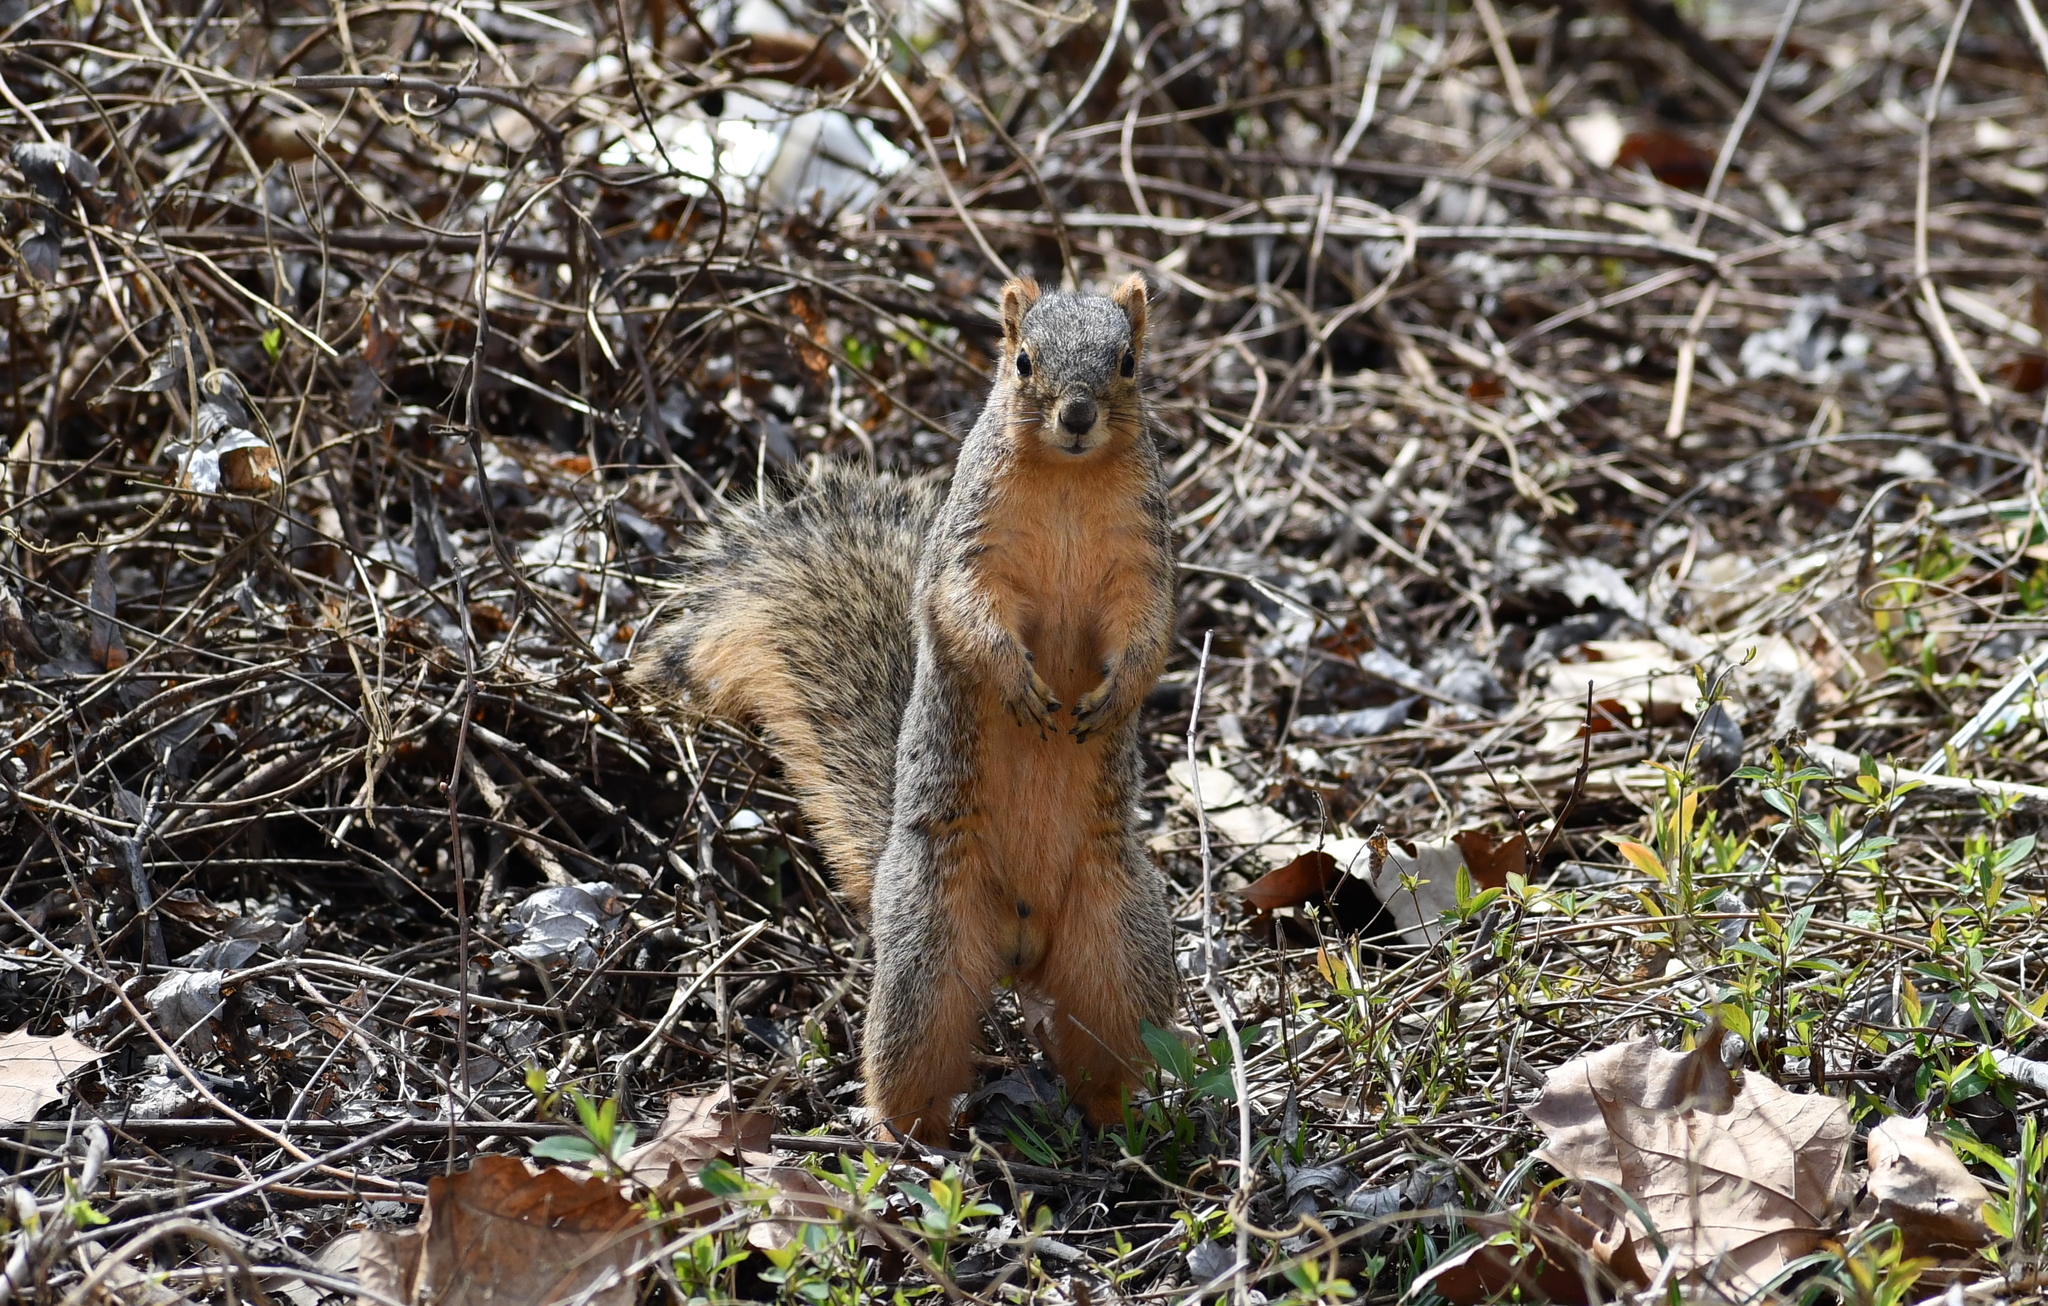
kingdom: Animalia
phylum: Chordata
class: Mammalia
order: Rodentia
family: Sciuridae
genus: Sciurus
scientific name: Sciurus niger
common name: Fox squirrel
